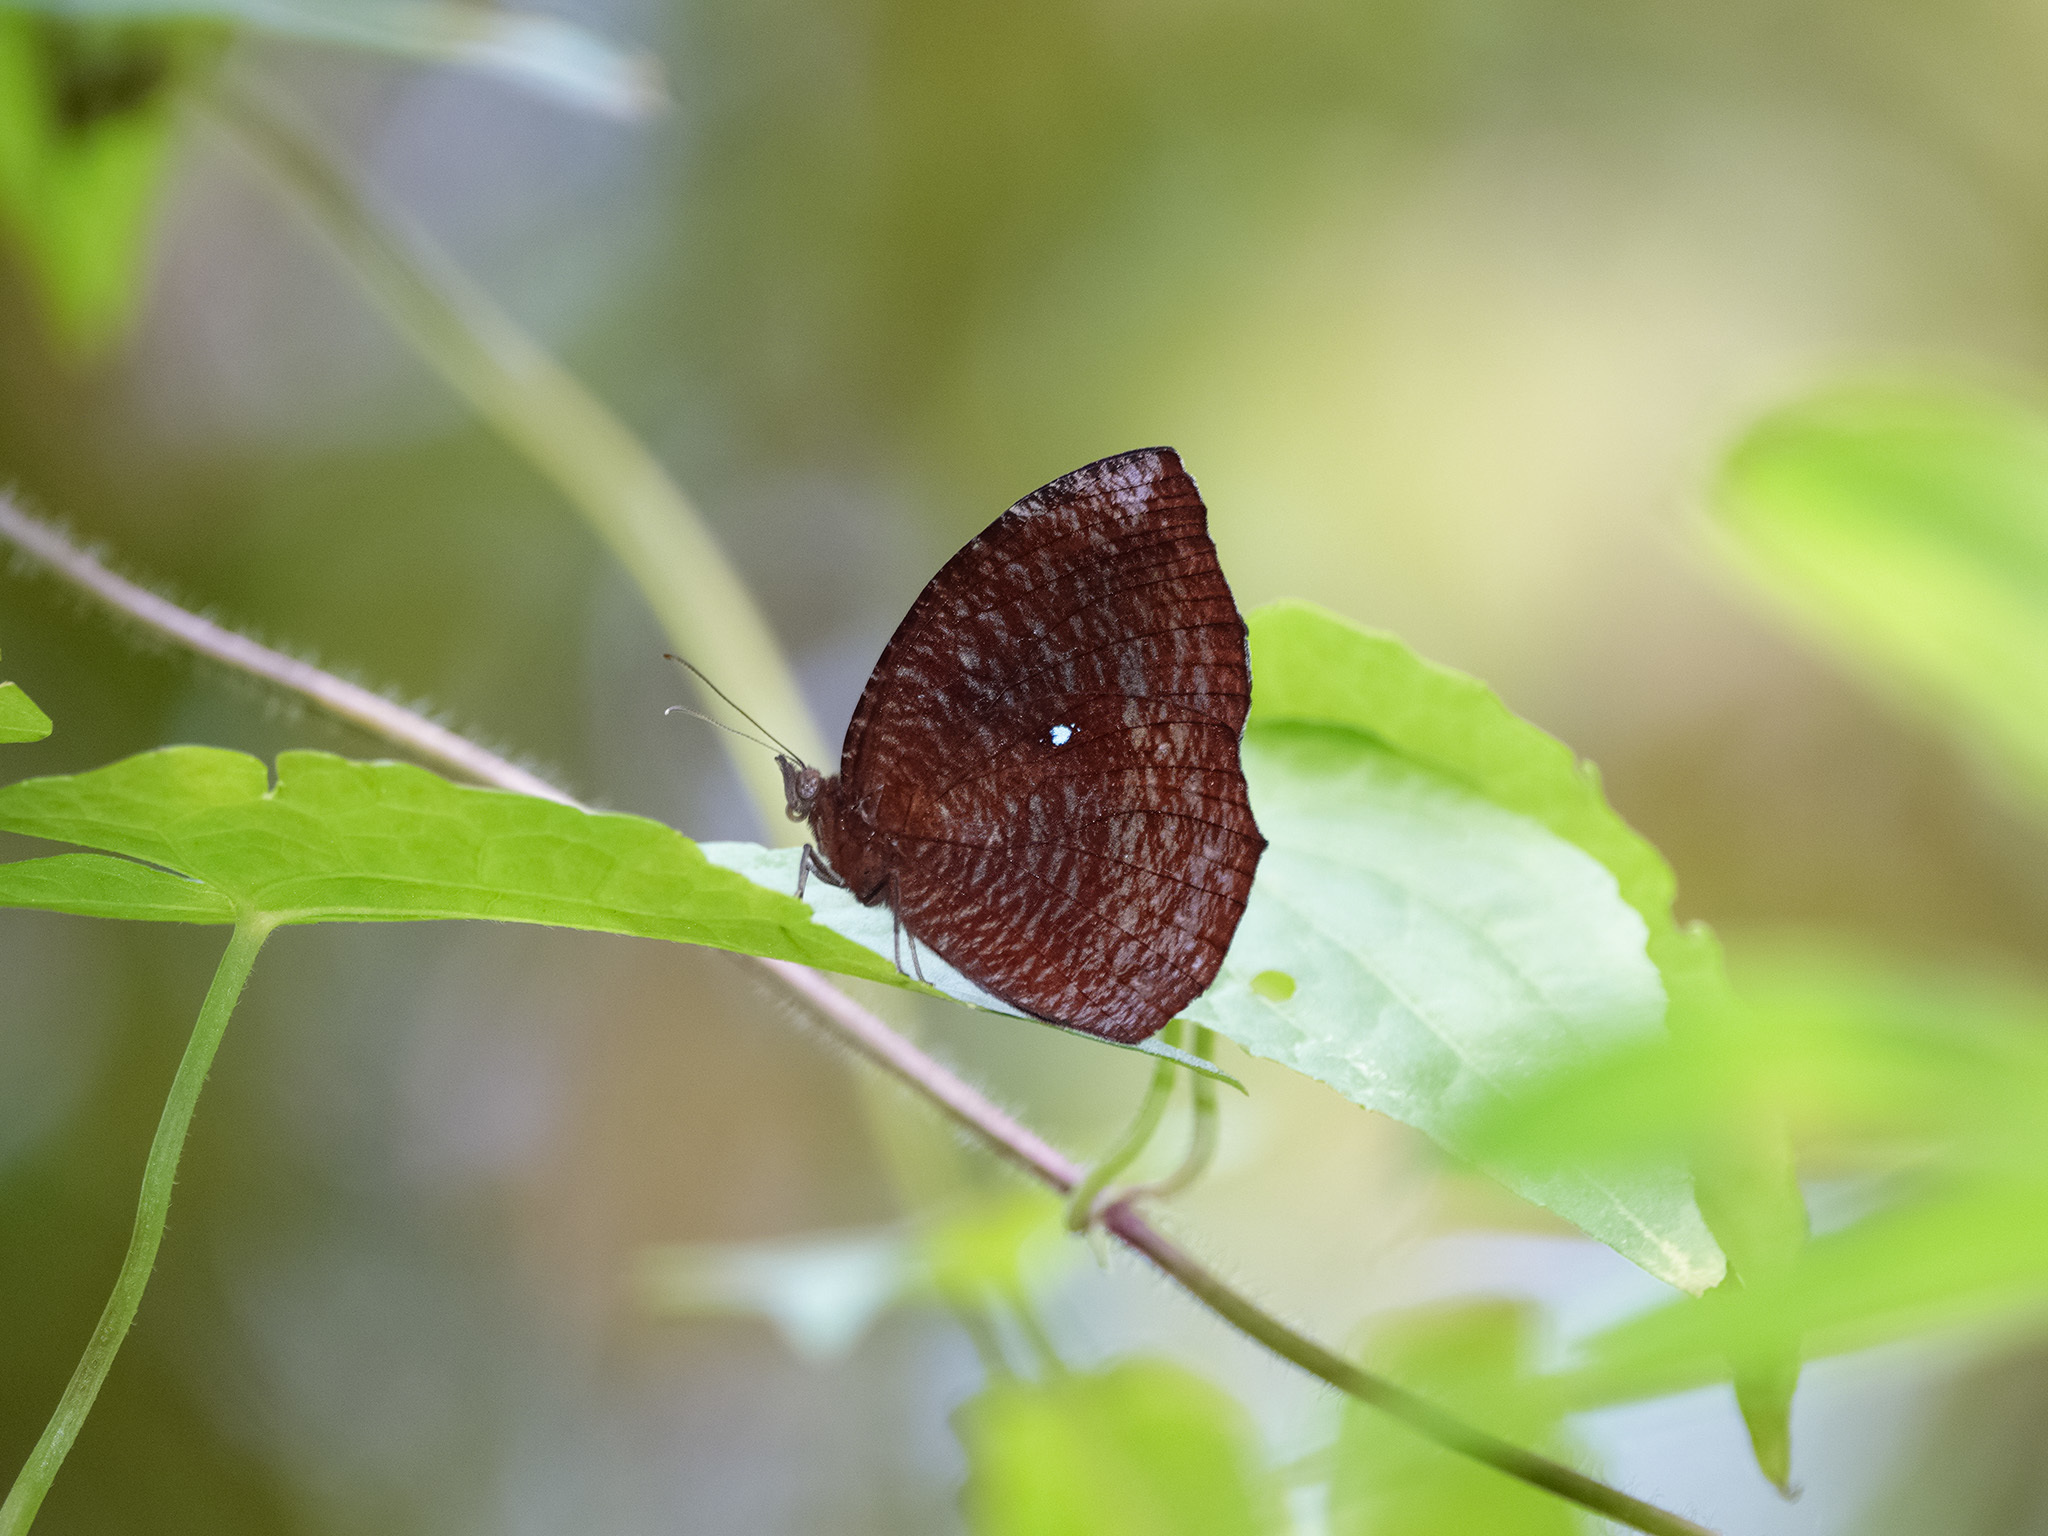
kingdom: Animalia
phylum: Arthropoda
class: Insecta
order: Lepidoptera
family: Nymphalidae
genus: Elymnias
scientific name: Elymnias hypermnestra
